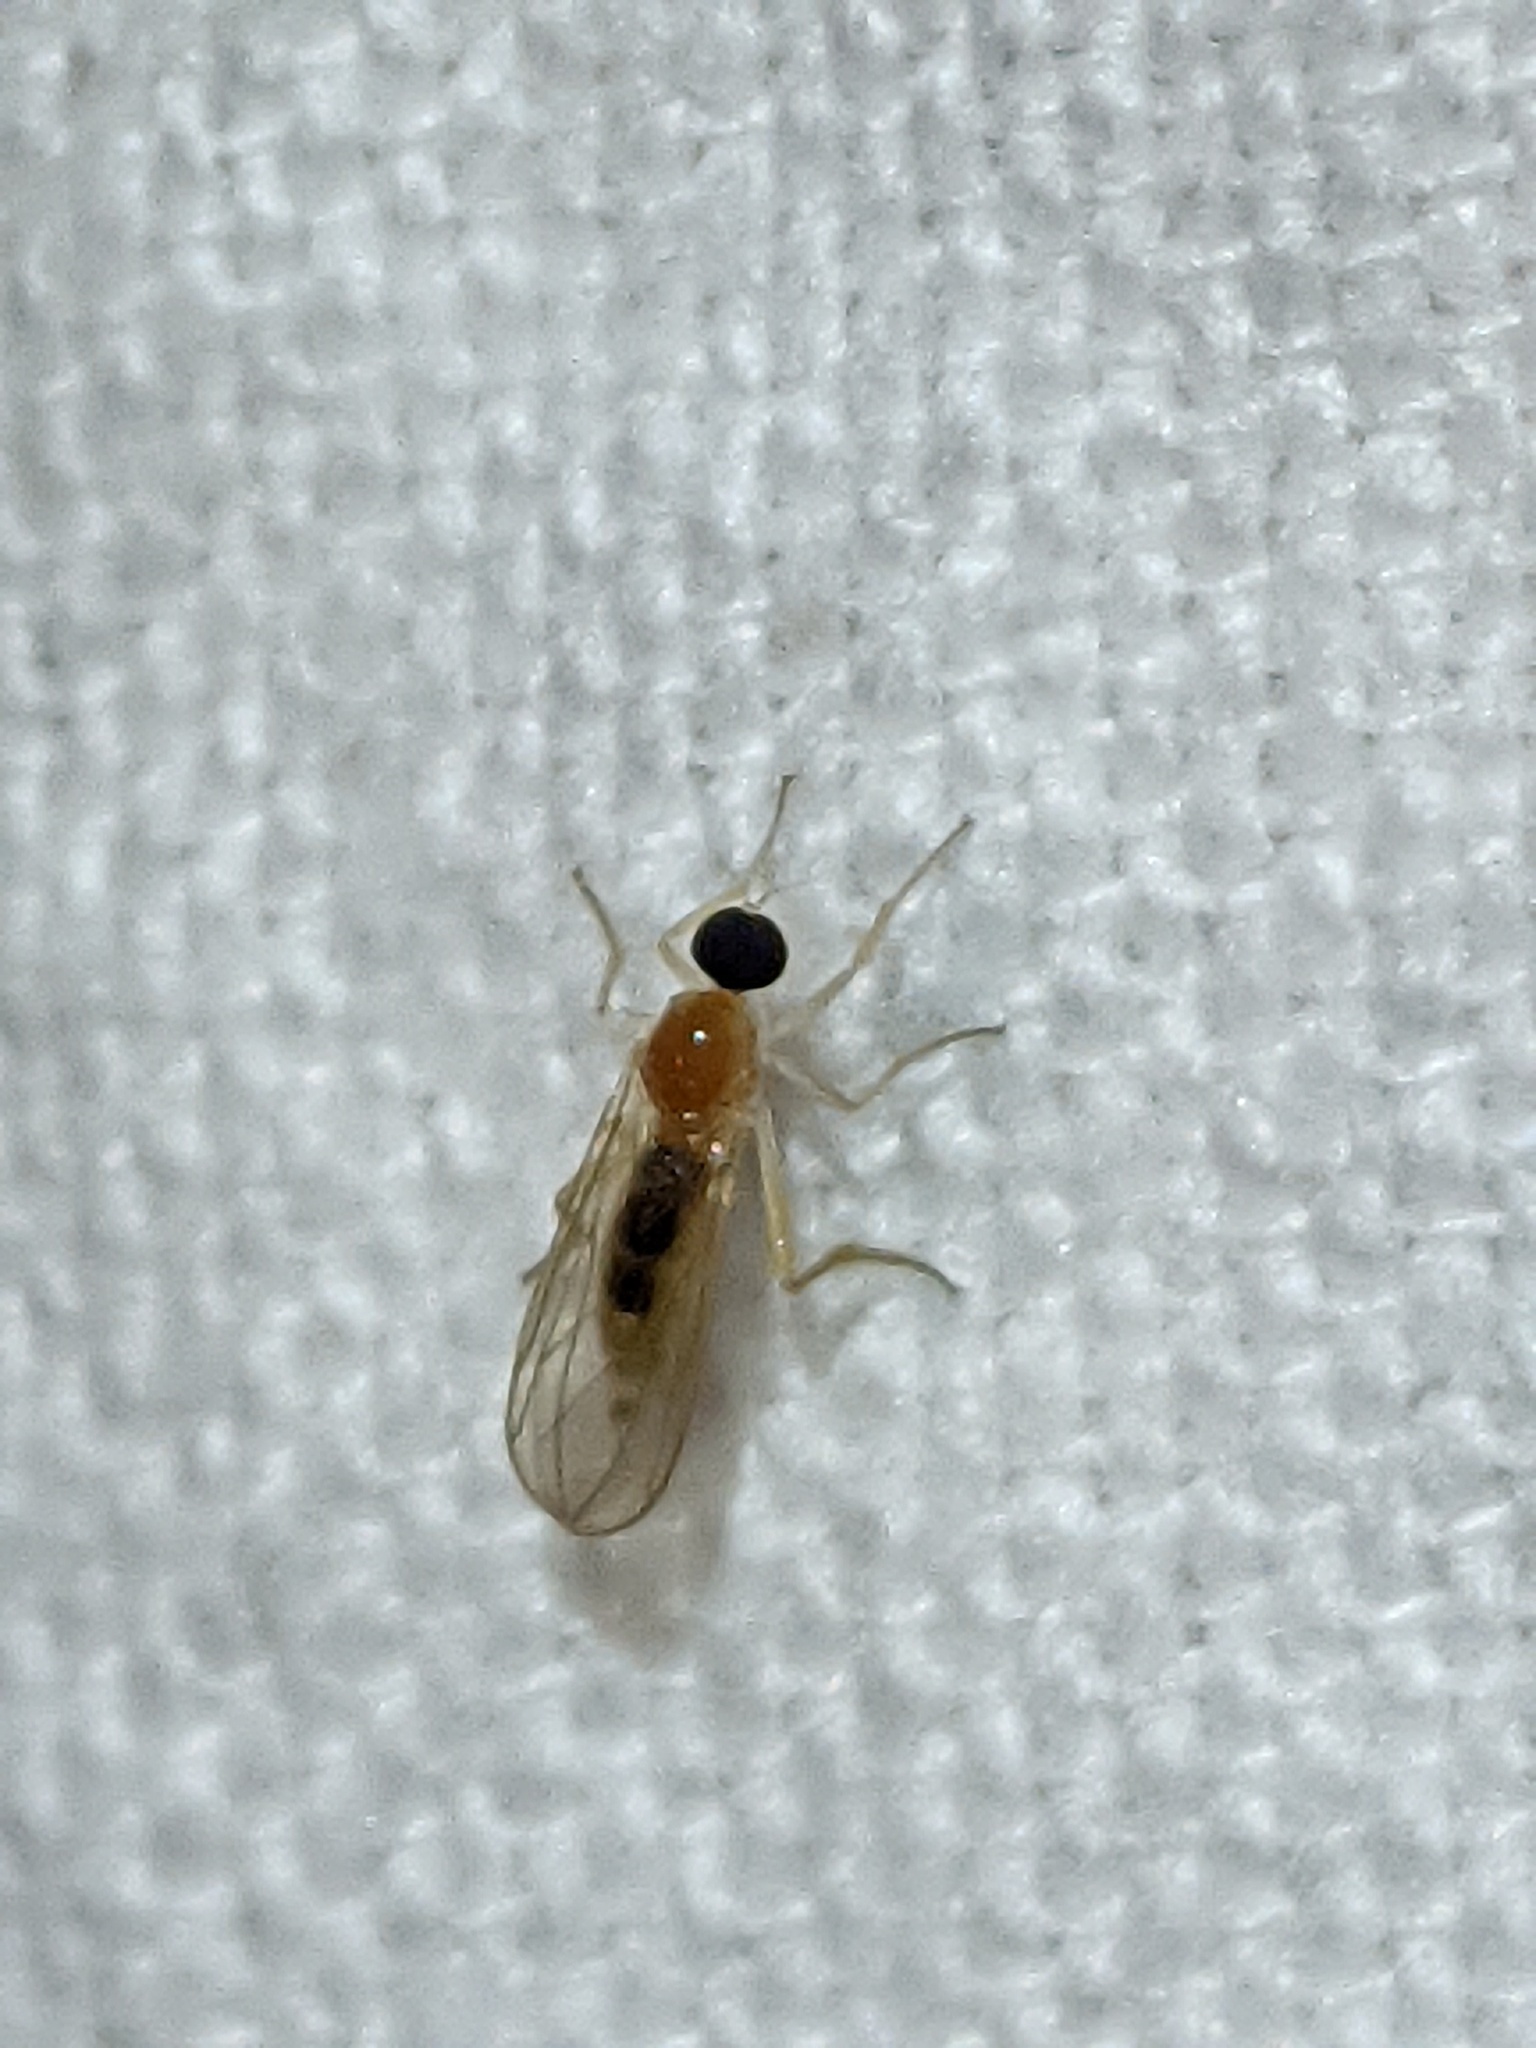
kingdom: Animalia
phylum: Arthropoda
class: Insecta
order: Diptera
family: Hybotidae
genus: Leptopeza
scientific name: Leptopeza compta
